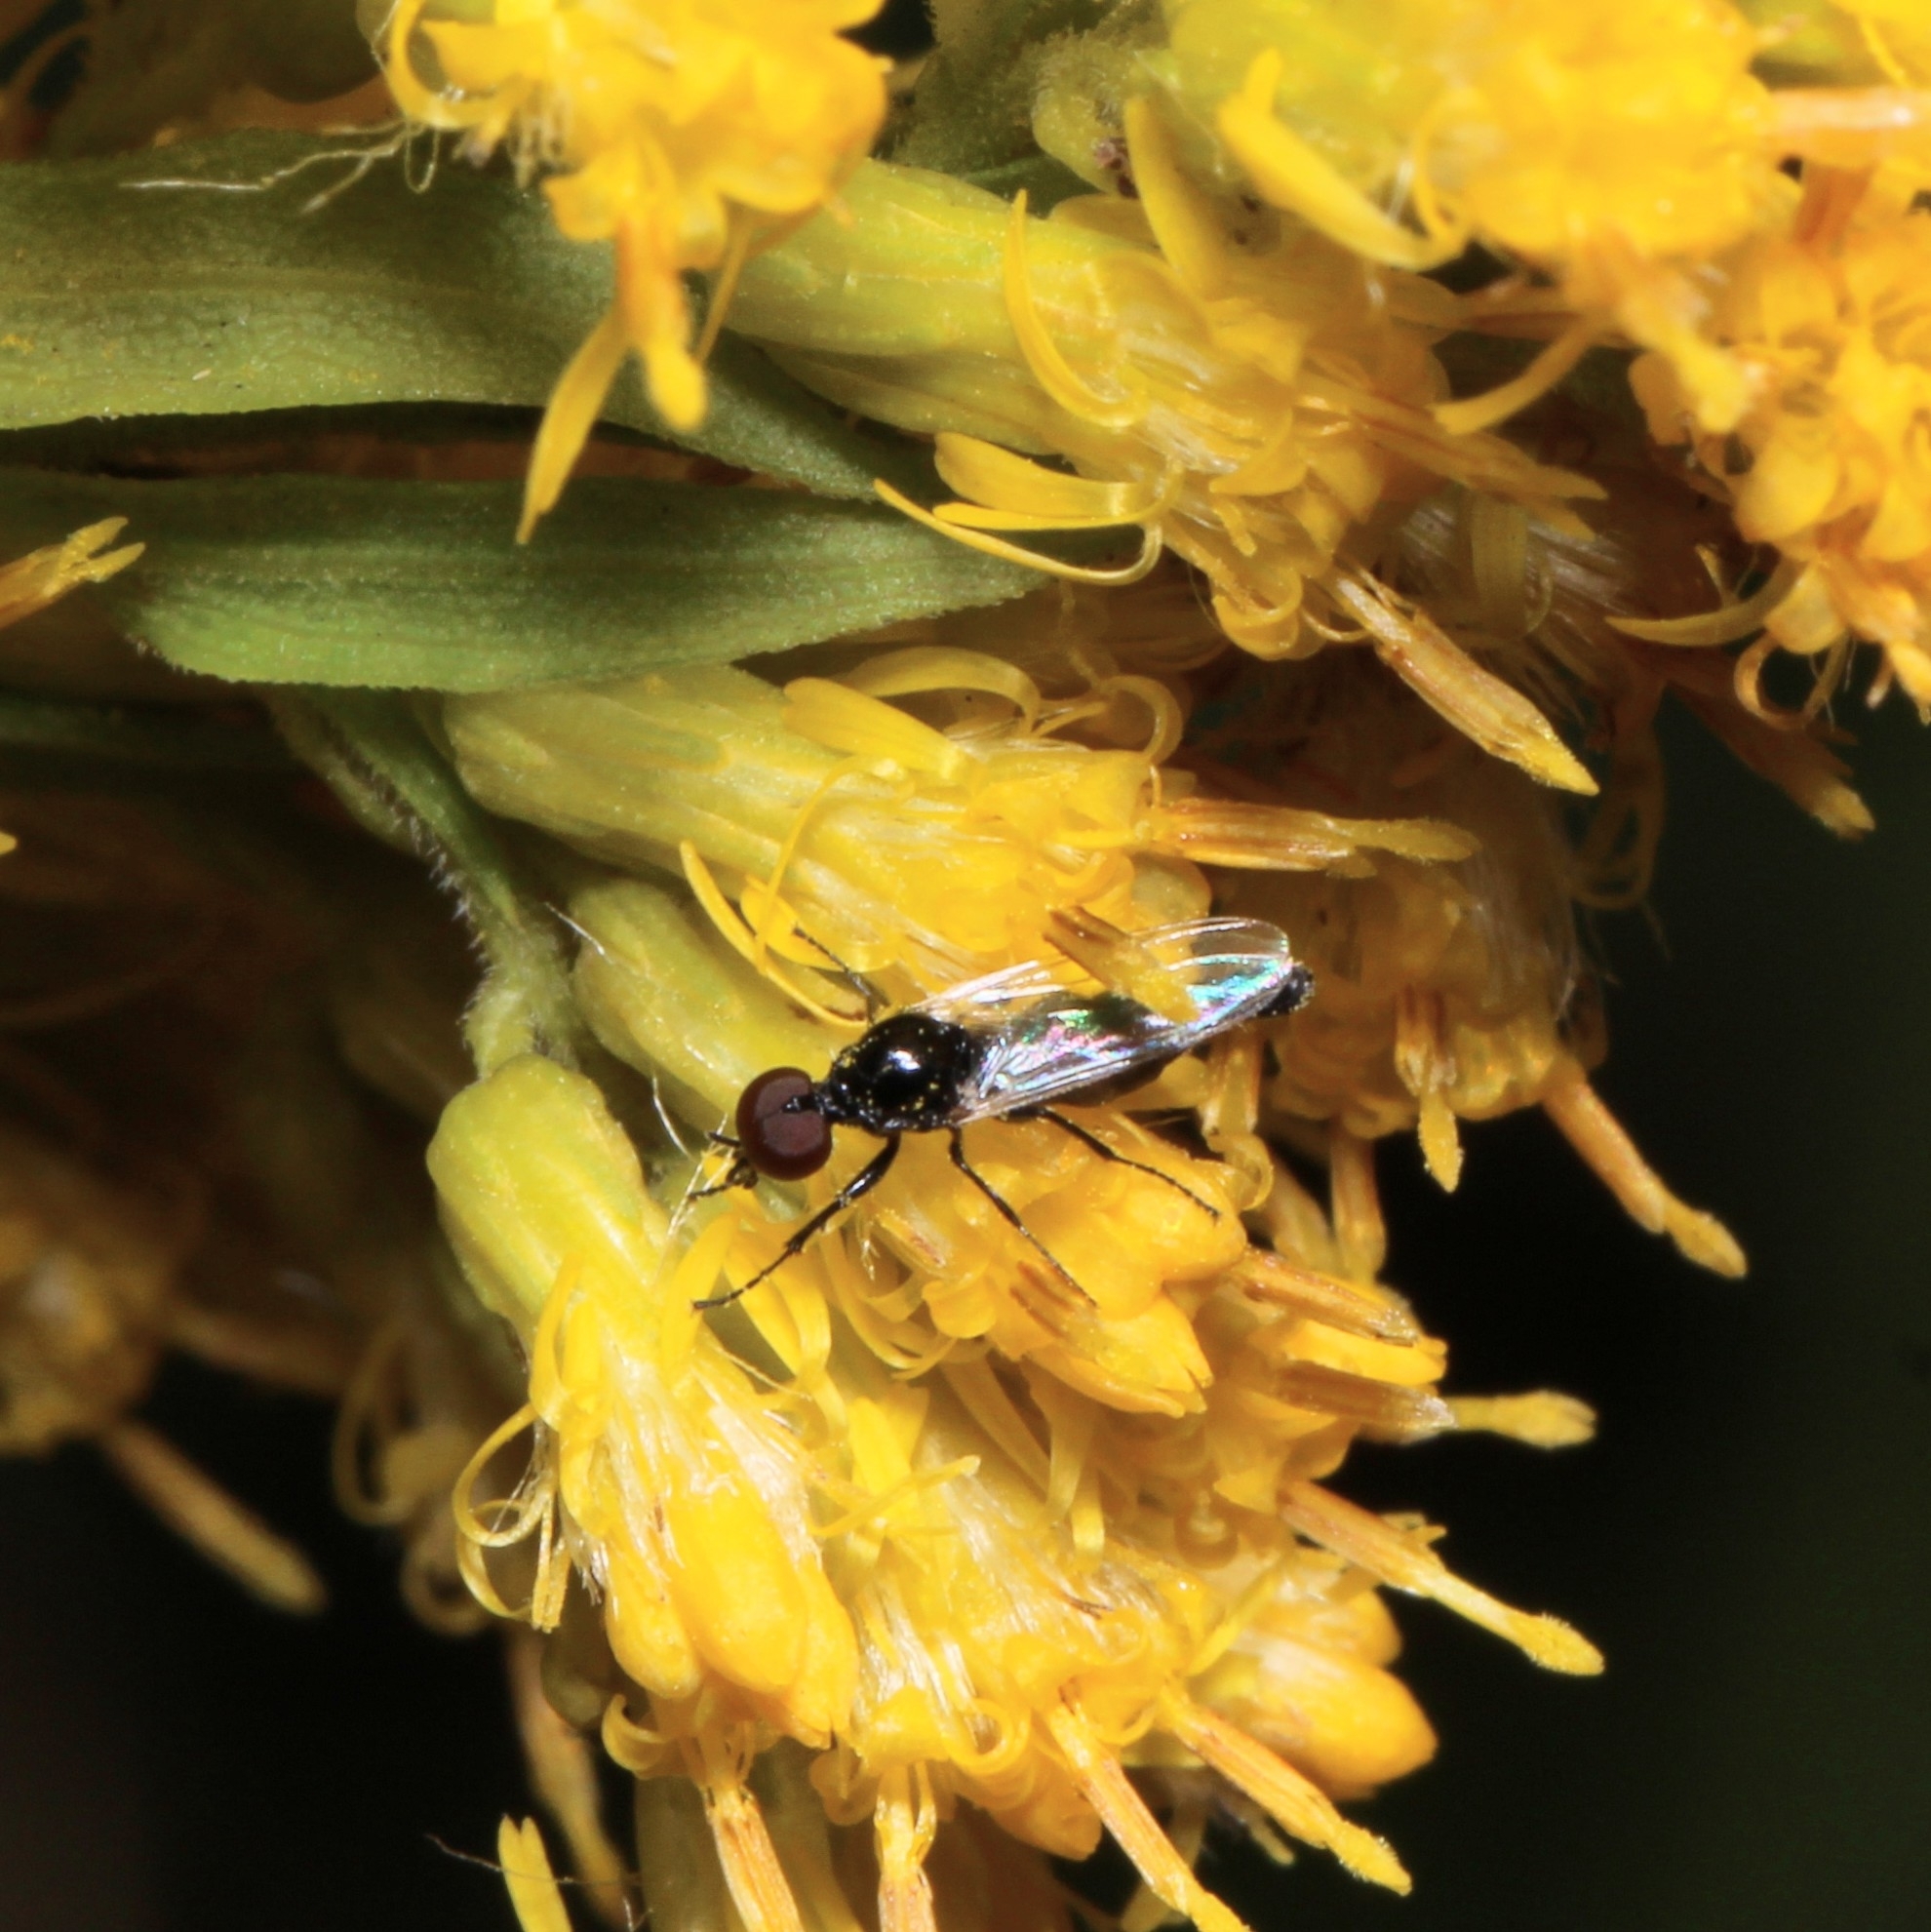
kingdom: Animalia
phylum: Arthropoda
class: Insecta
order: Diptera
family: Bibionidae
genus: Dilophus
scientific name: Dilophus
